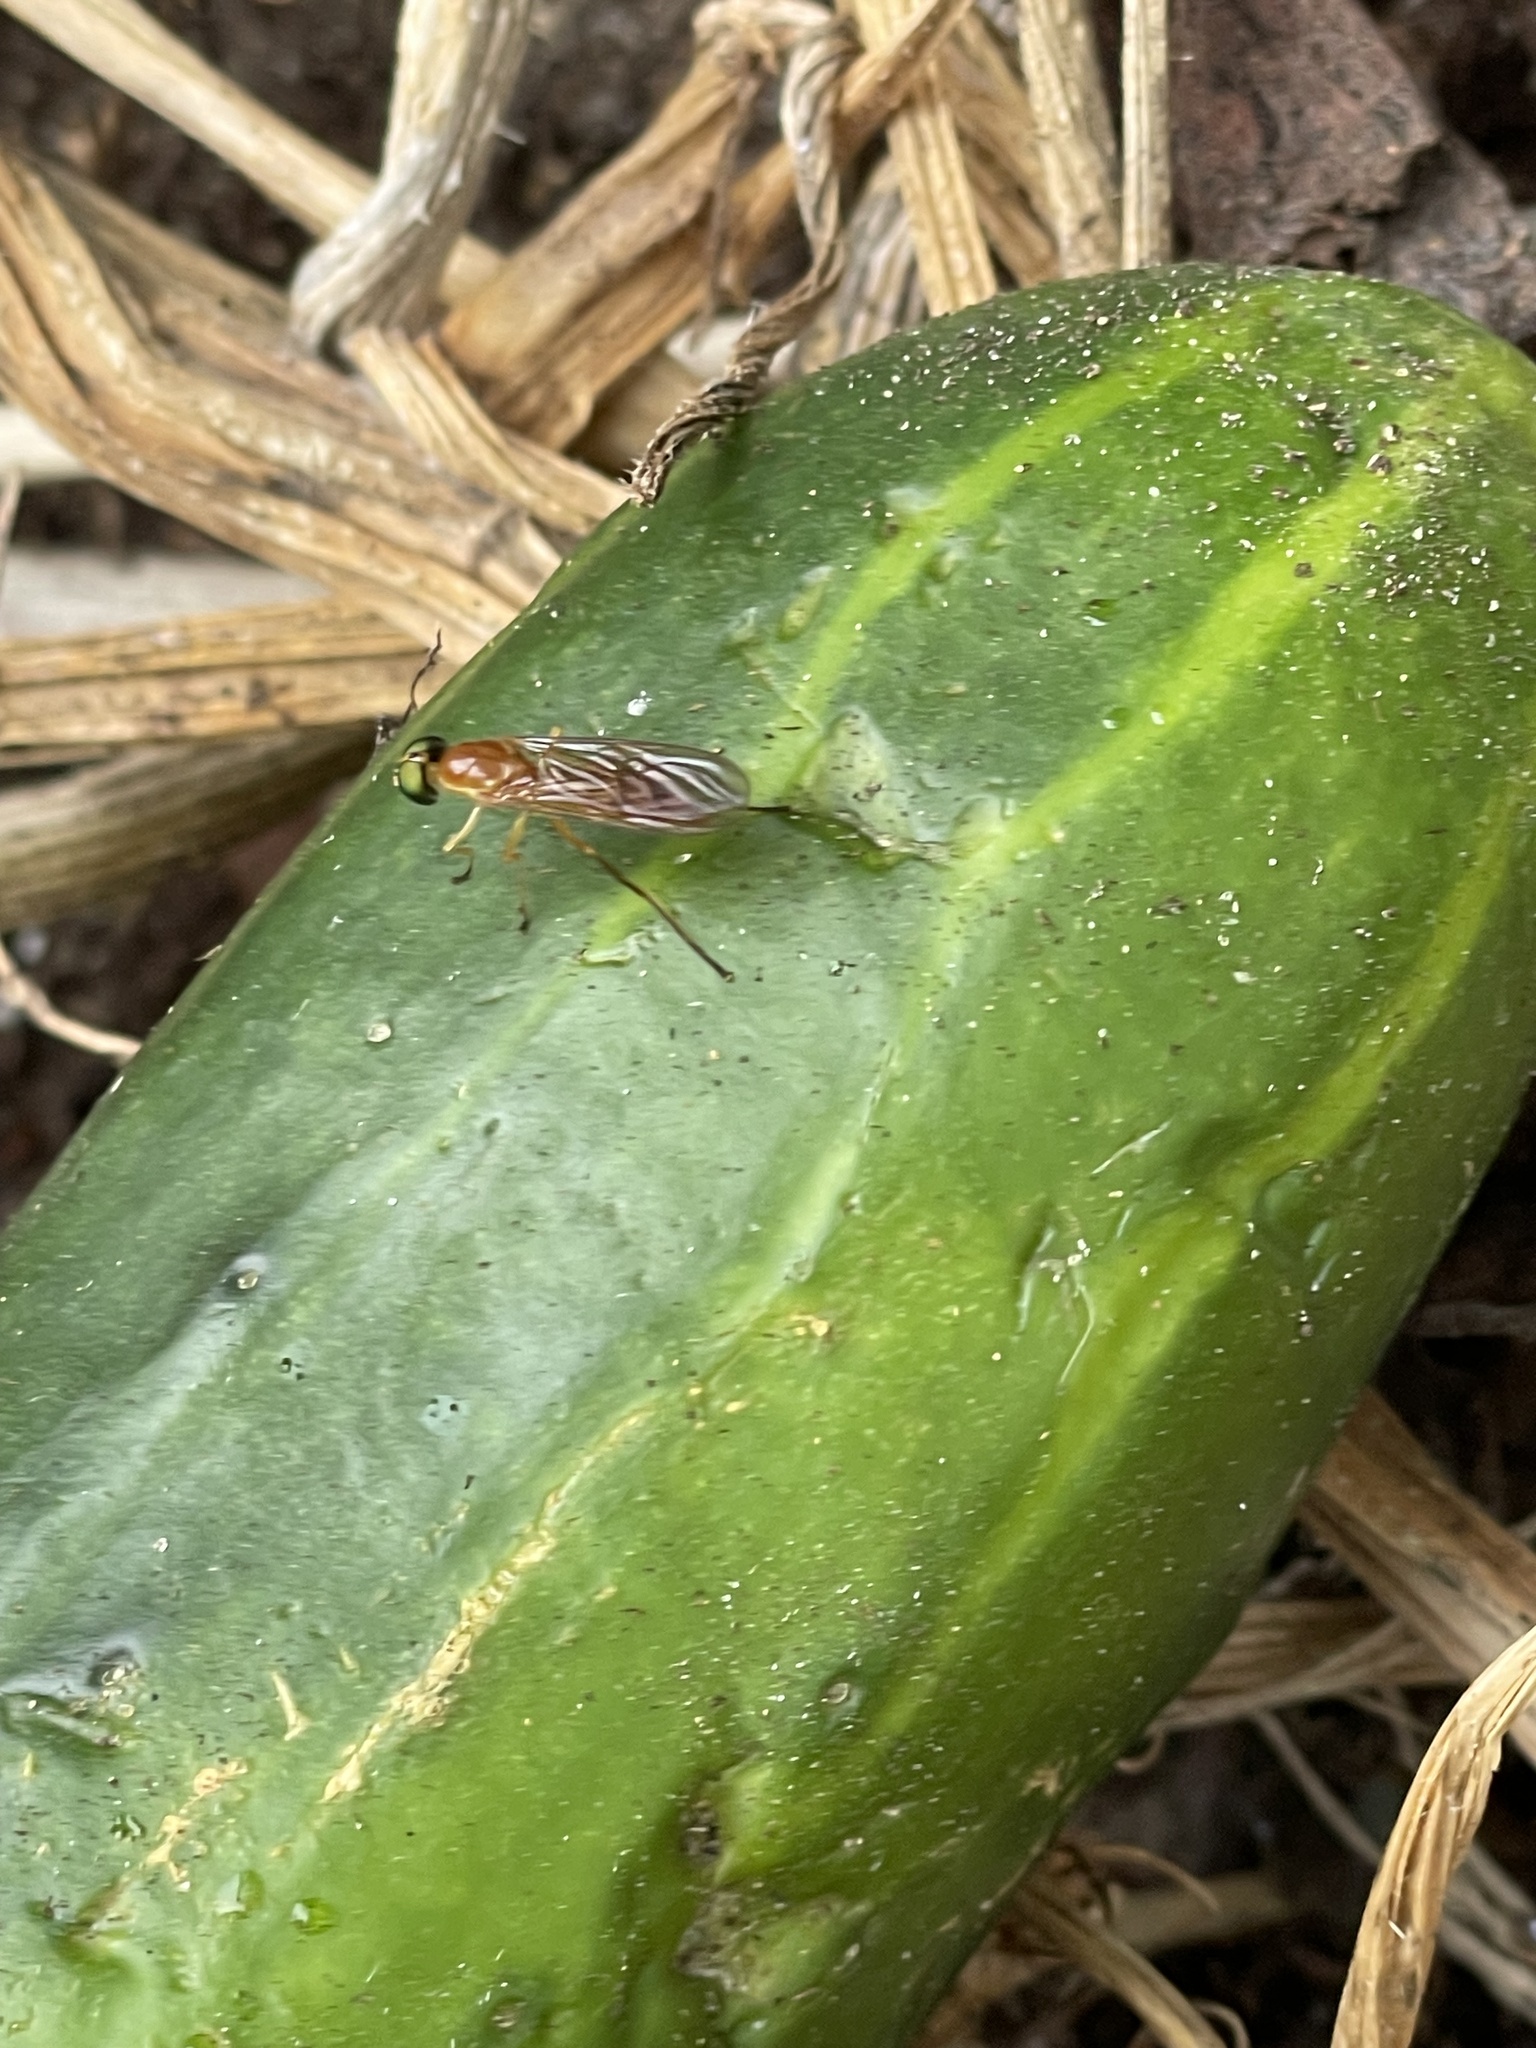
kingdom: Animalia
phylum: Arthropoda
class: Insecta
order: Diptera
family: Stratiomyidae
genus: Ptecticus
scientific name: Ptecticus trivittatus
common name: Compost fly
